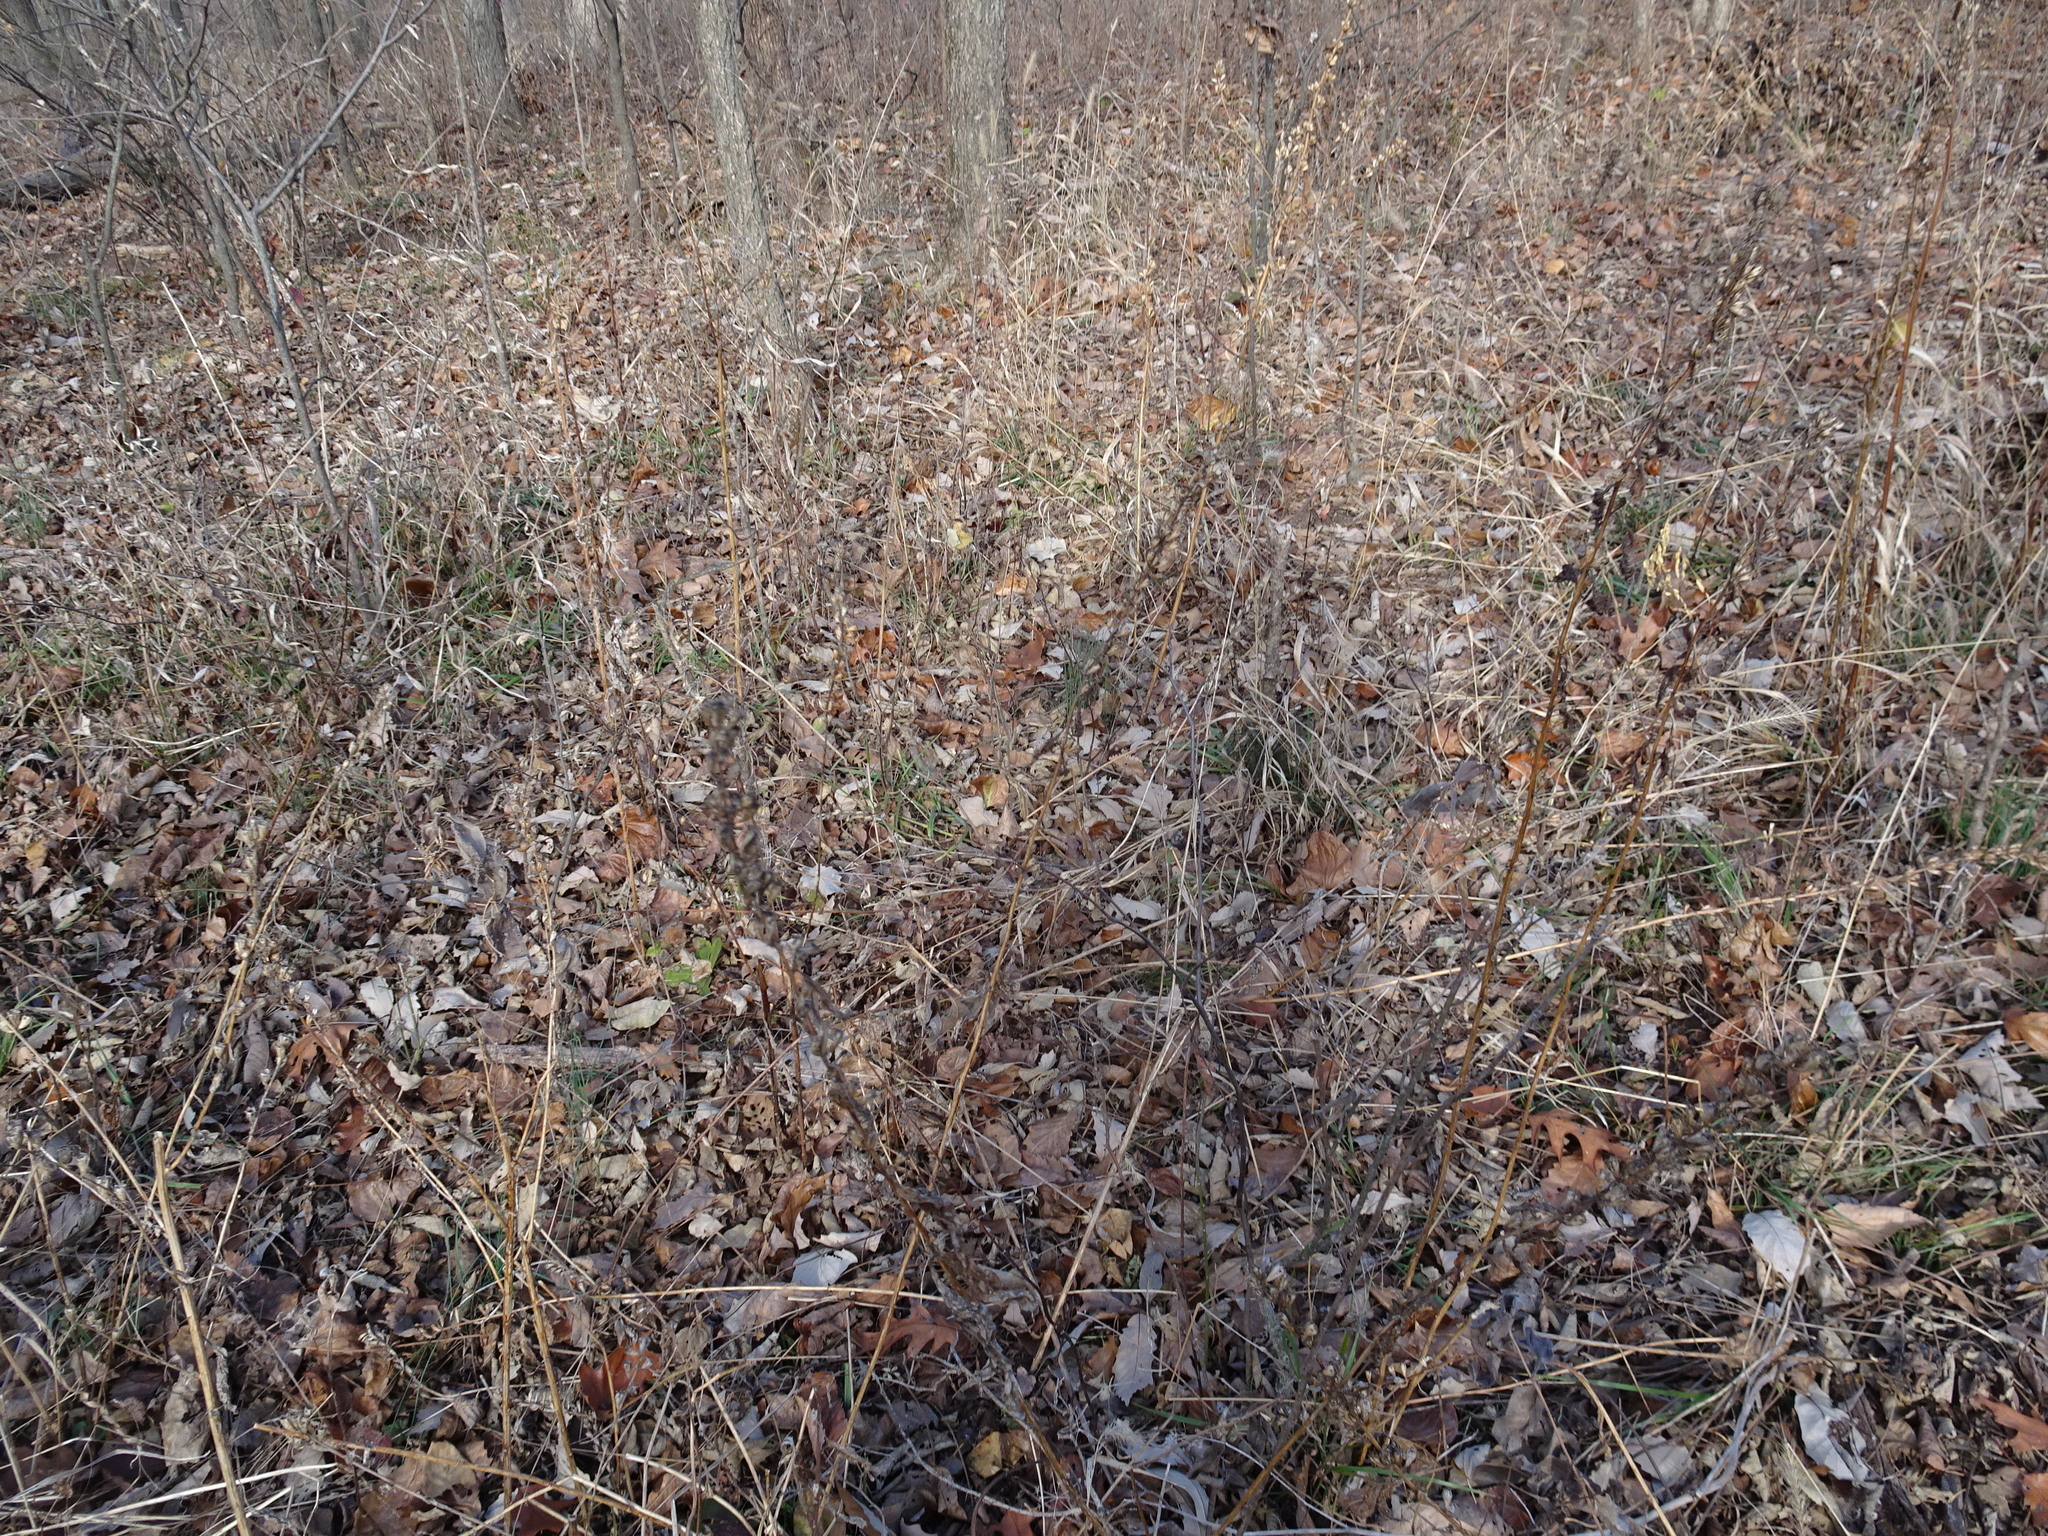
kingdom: Plantae
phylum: Tracheophyta
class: Magnoliopsida
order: Asterales
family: Campanulaceae
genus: Campanulastrum
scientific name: Campanulastrum americanum
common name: American bellflower
